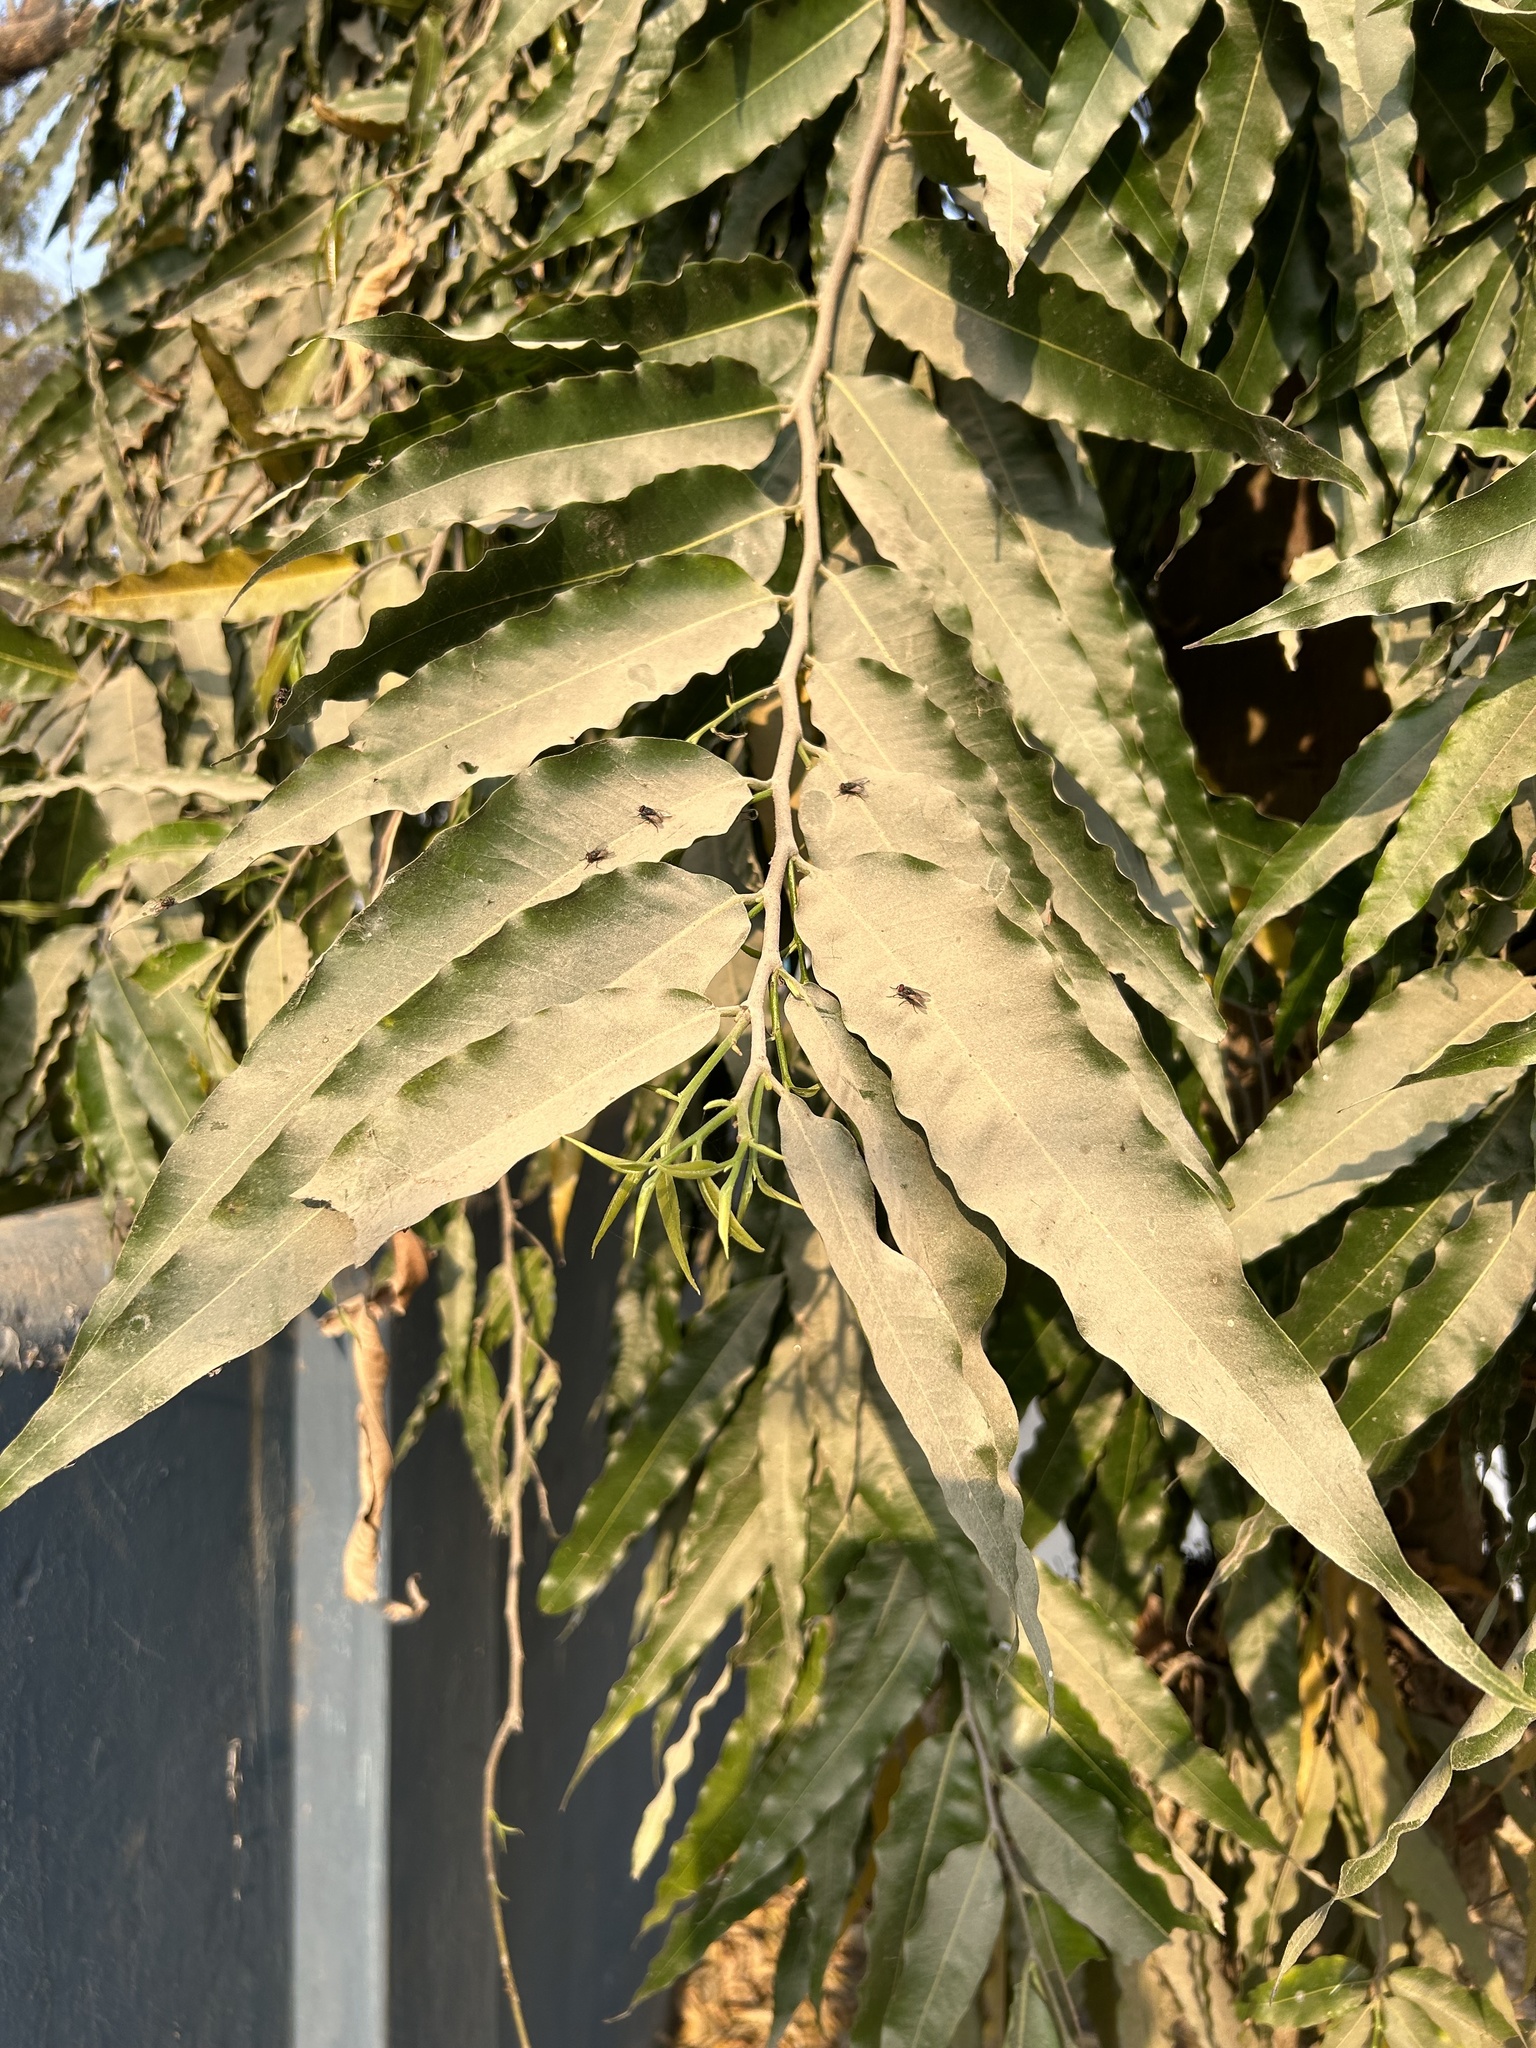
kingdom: Plantae
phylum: Tracheophyta
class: Magnoliopsida
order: Magnoliales
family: Annonaceae
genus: Polyalthia
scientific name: Polyalthia longifolia
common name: Cemetery-tree
